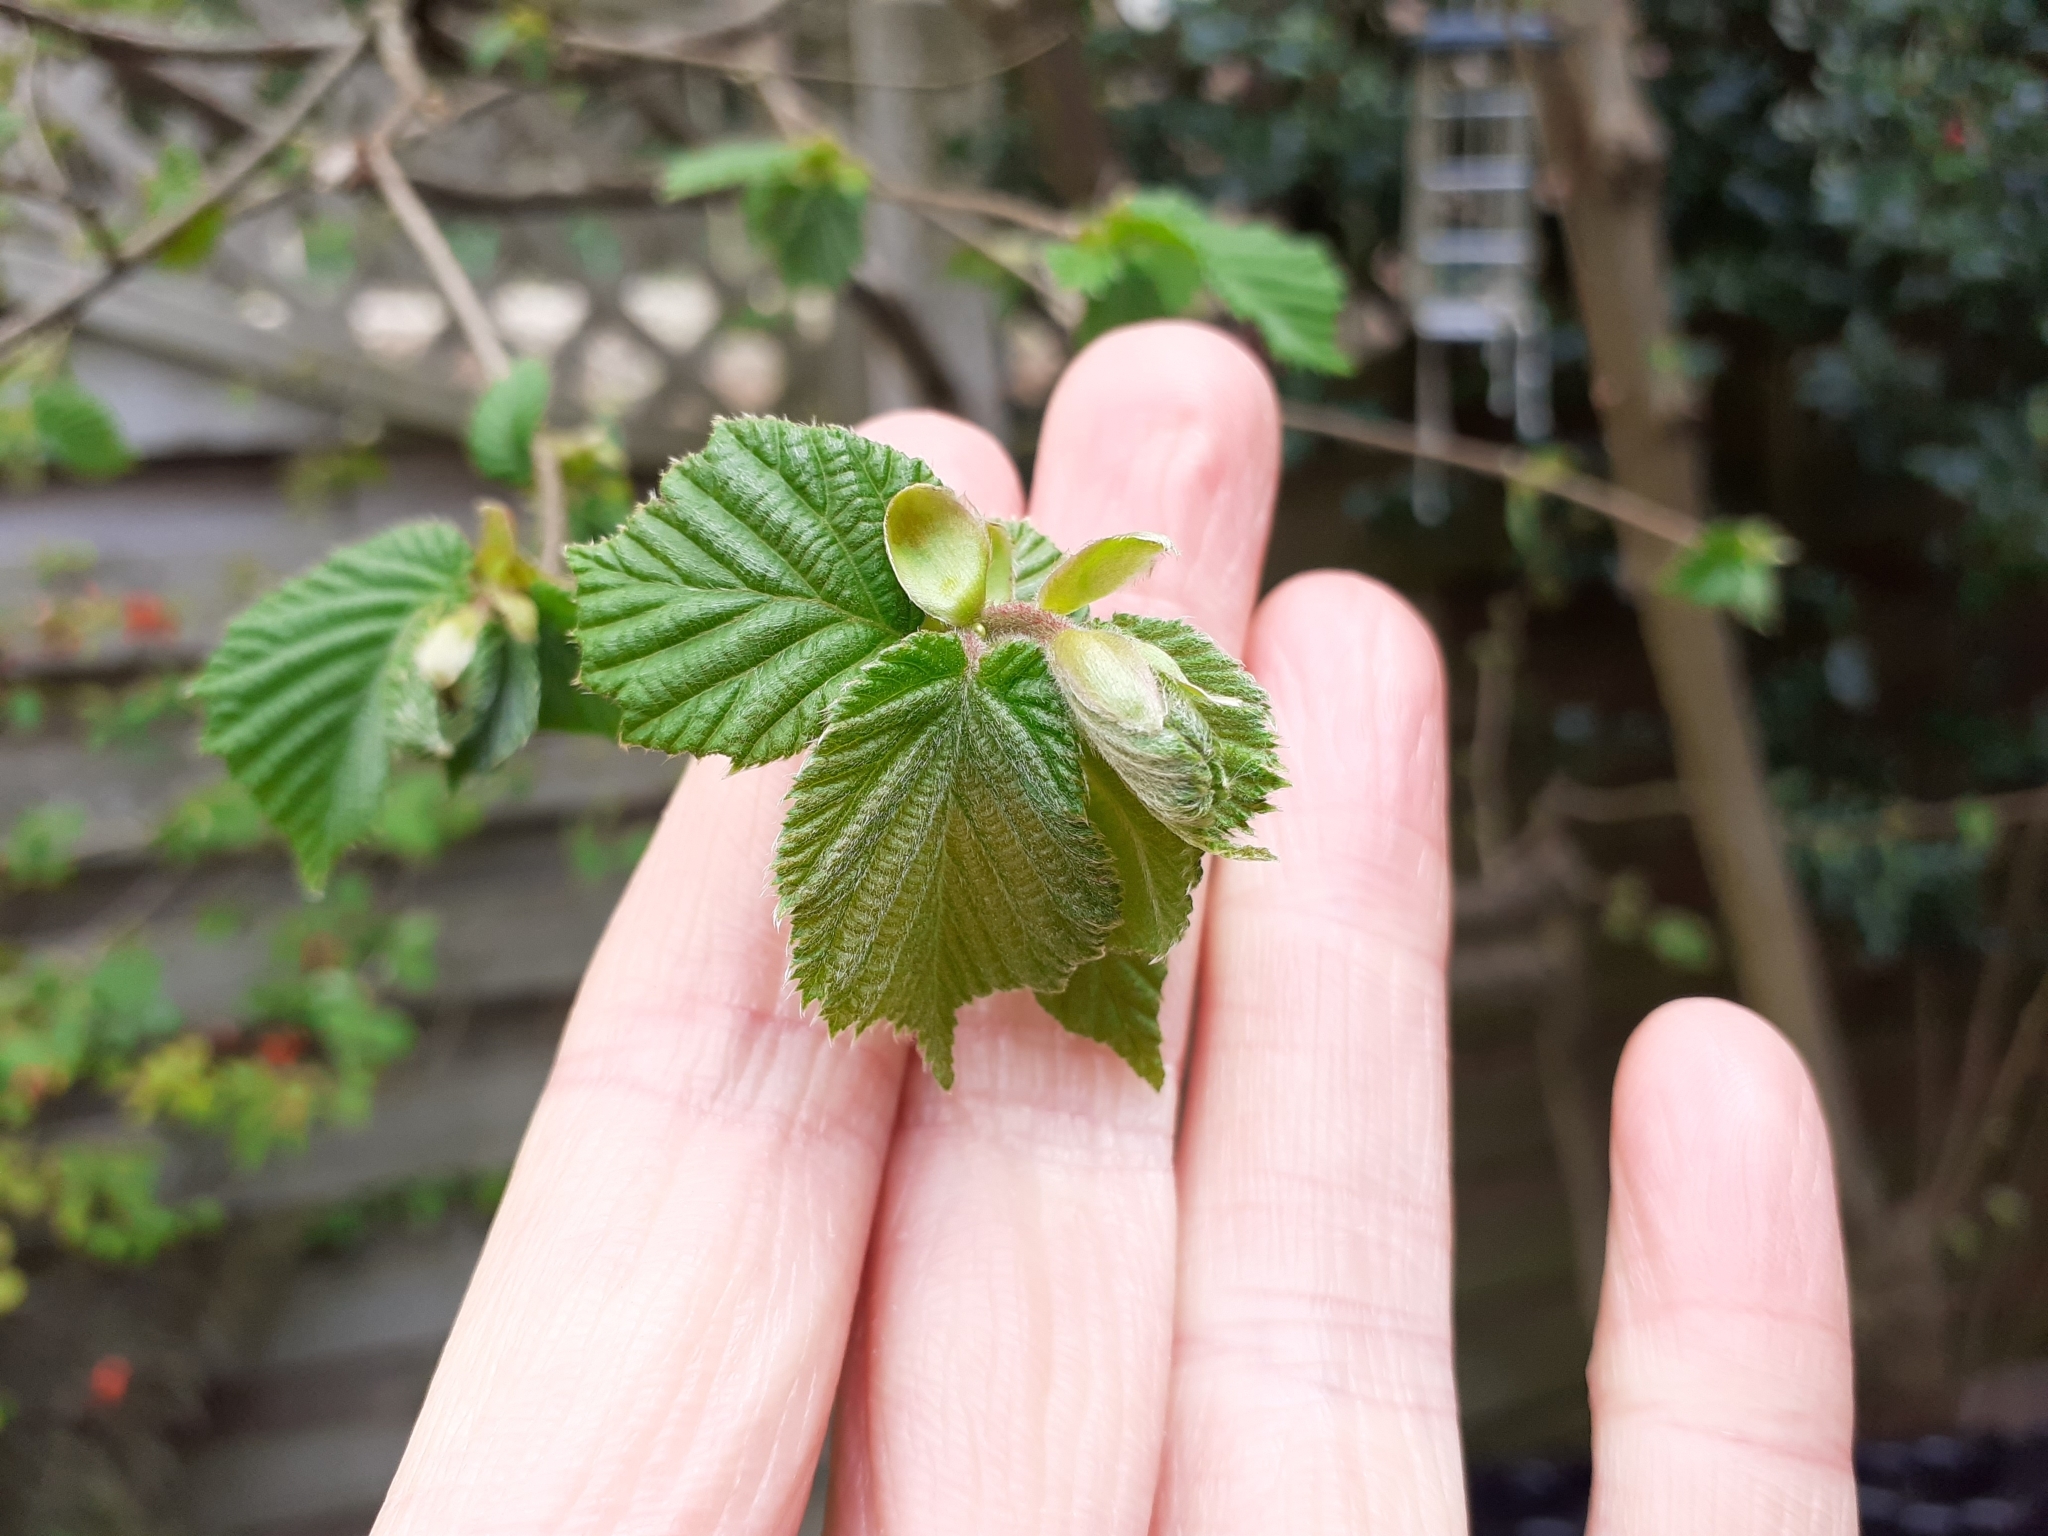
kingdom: Plantae
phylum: Tracheophyta
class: Magnoliopsida
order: Fagales
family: Betulaceae
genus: Corylus
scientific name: Corylus avellana
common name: European hazel
